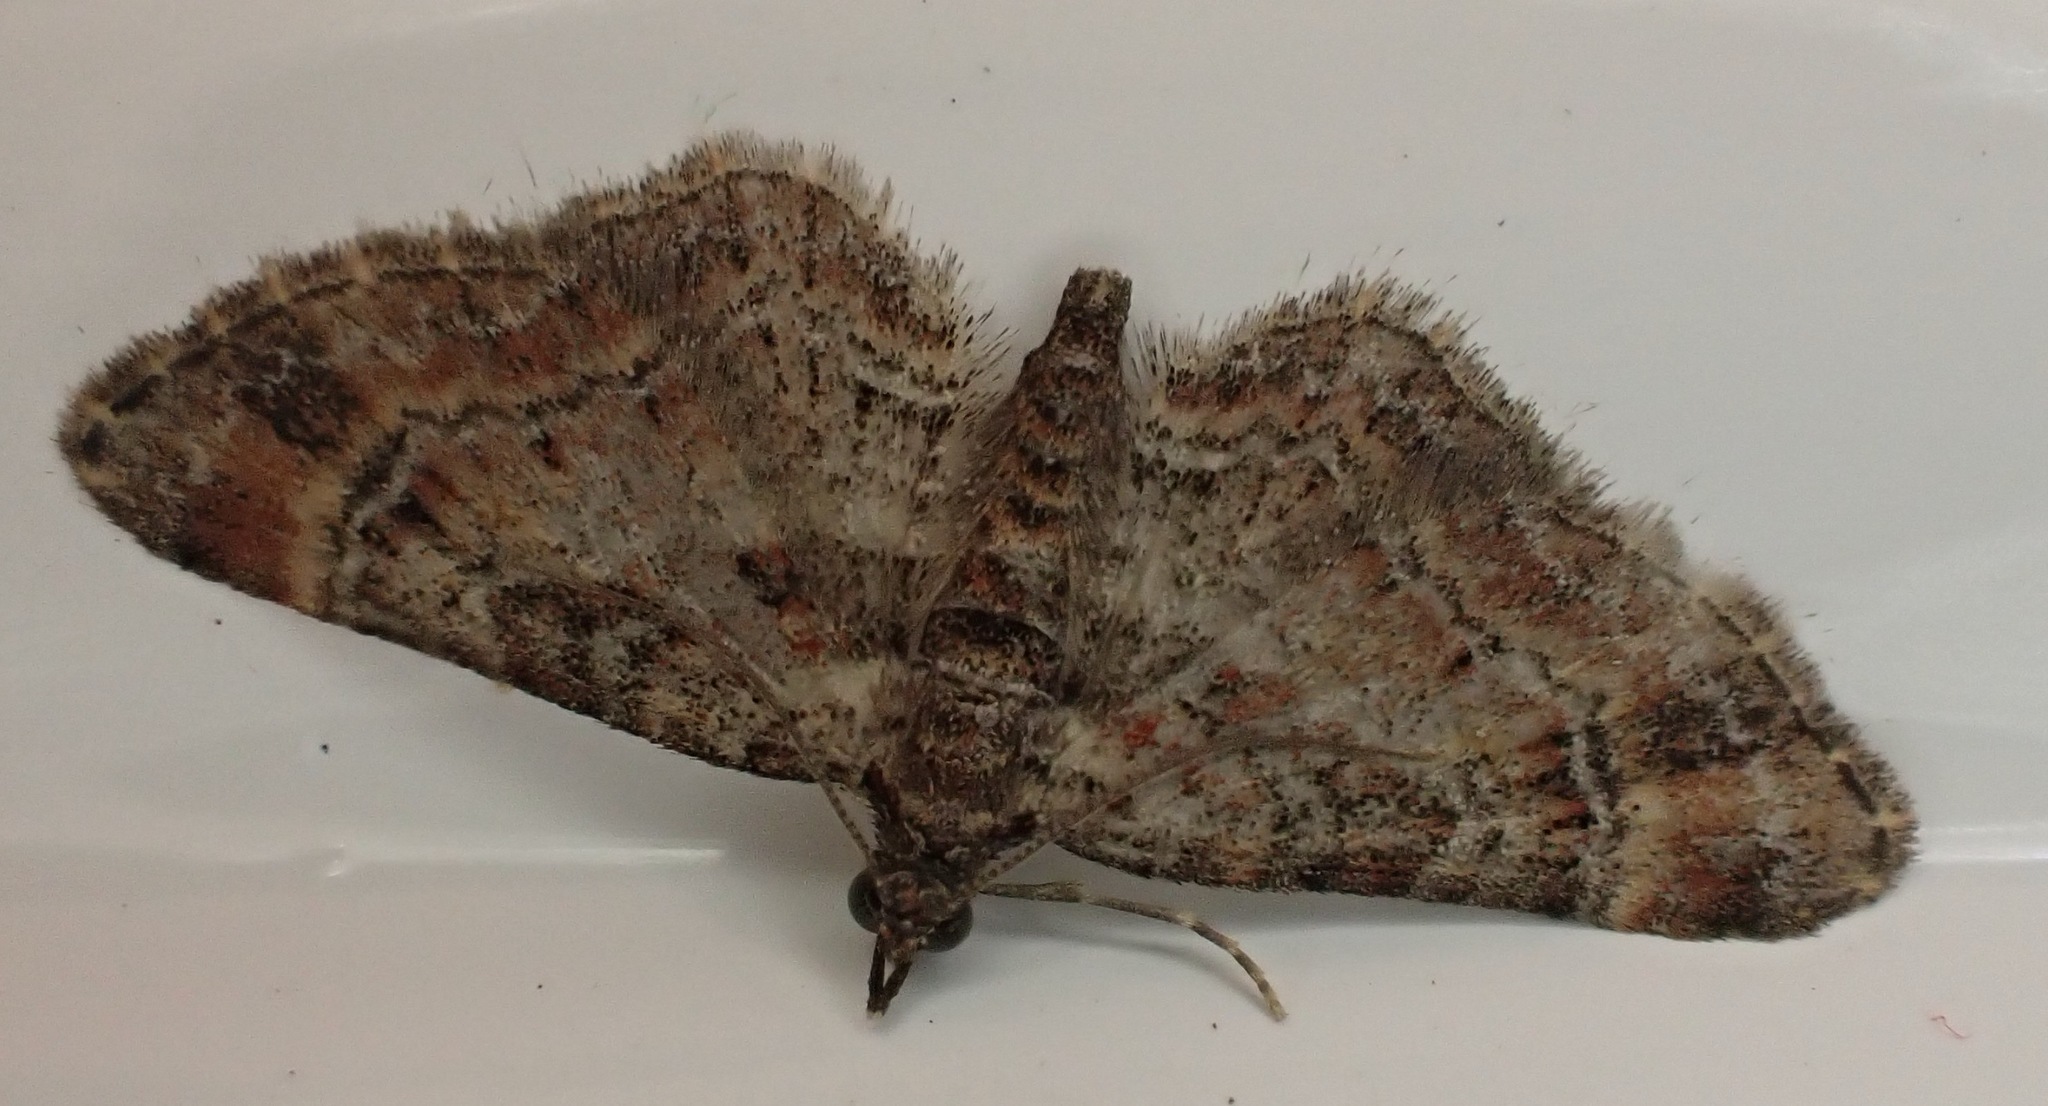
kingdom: Animalia
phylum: Arthropoda
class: Insecta
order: Lepidoptera
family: Geometridae
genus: Gymnoscelis
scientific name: Gymnoscelis rufifasciata
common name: Double-striped pug
